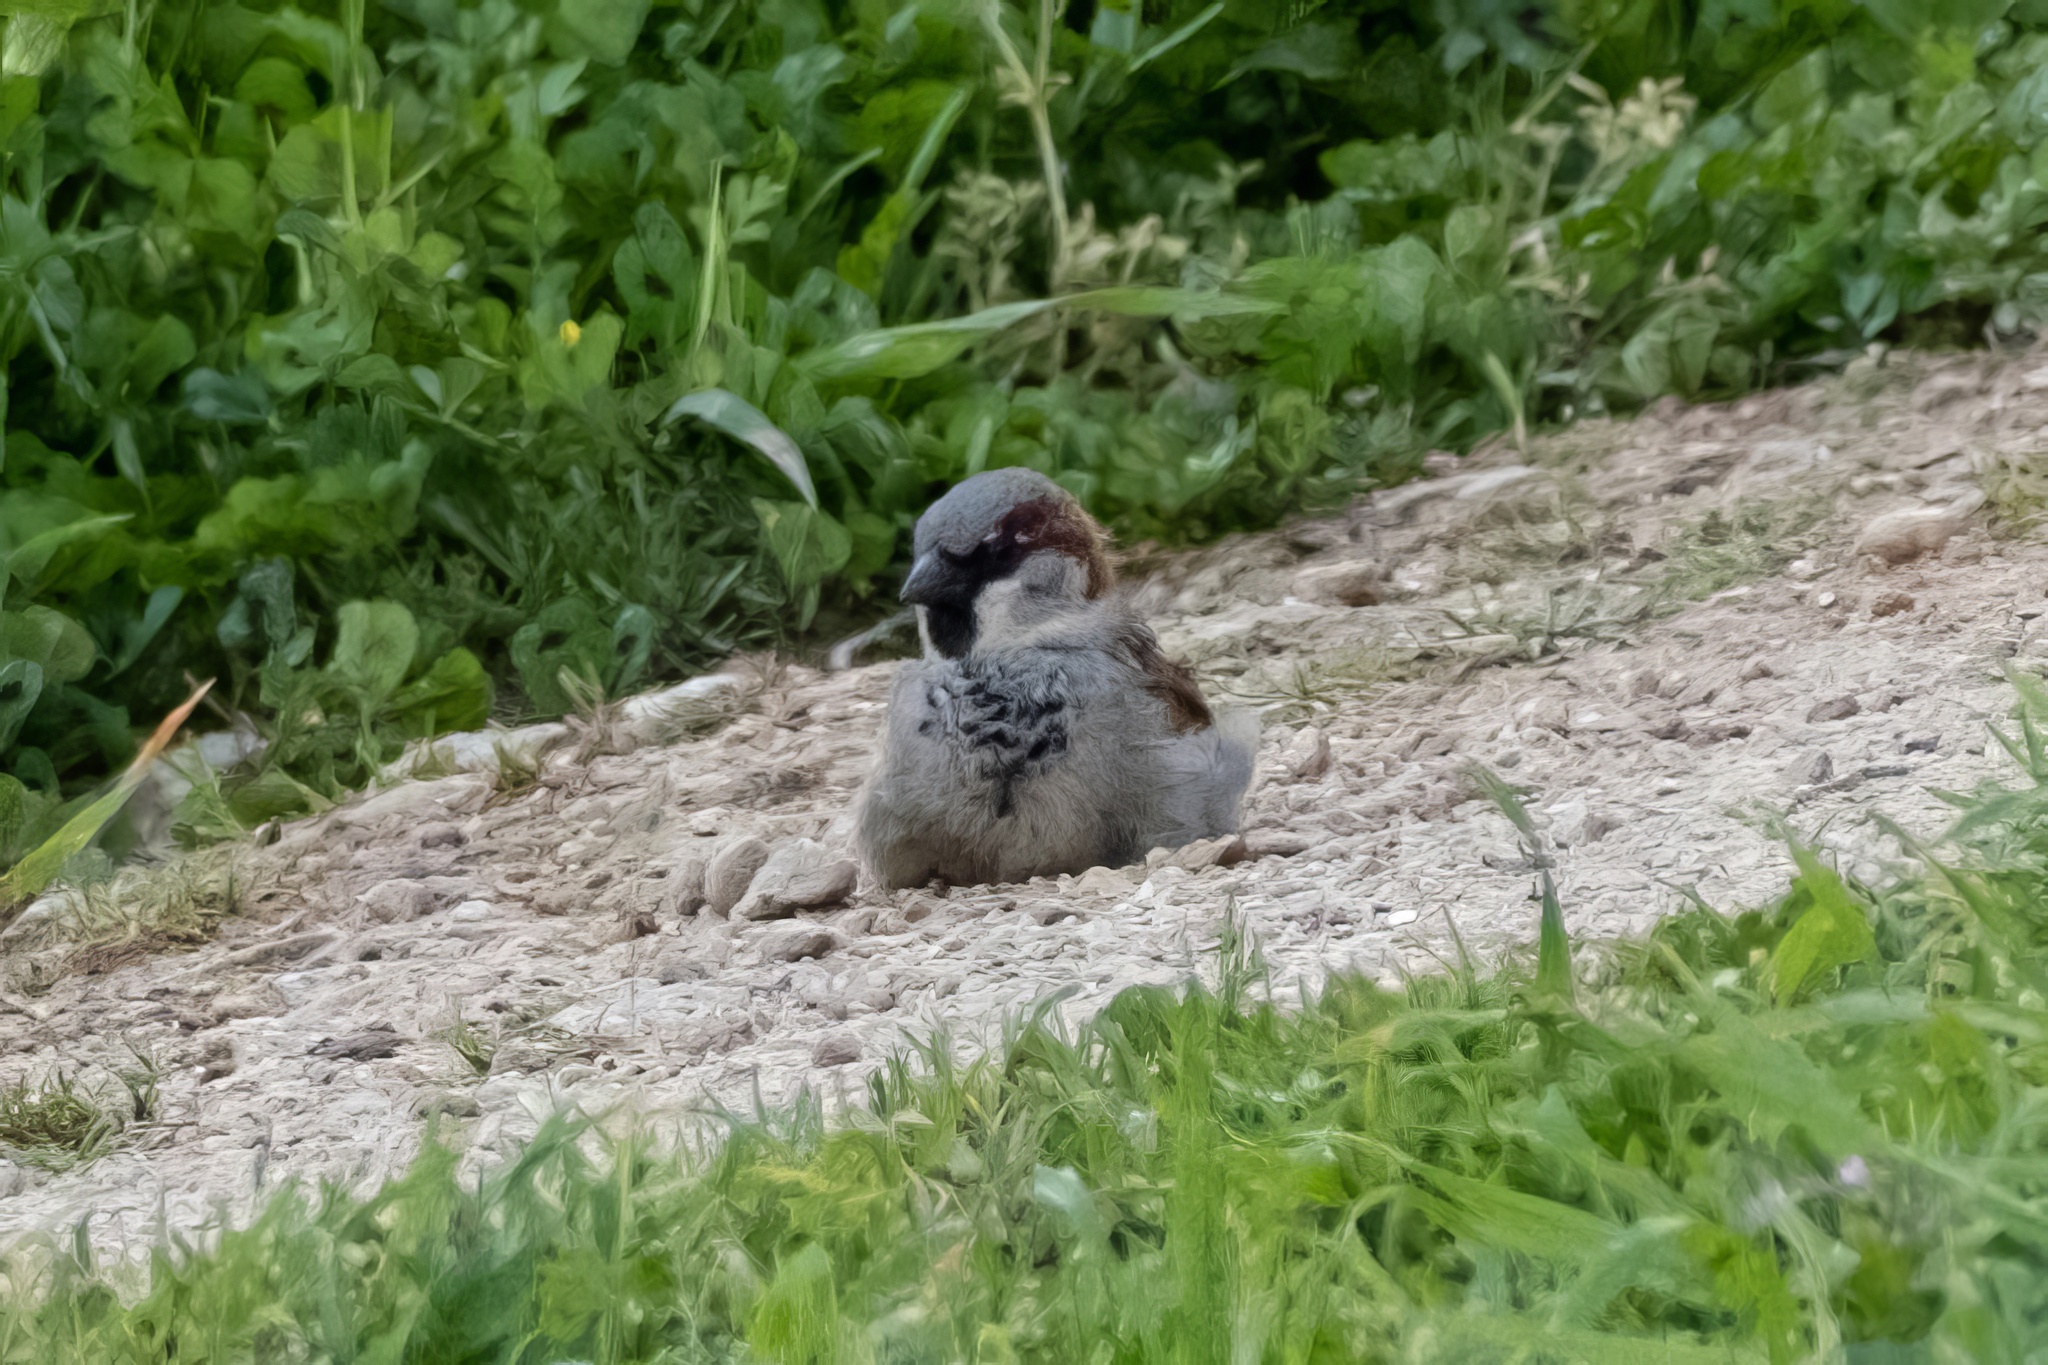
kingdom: Animalia
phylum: Chordata
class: Aves
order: Passeriformes
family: Passeridae
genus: Passer
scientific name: Passer domesticus
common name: House sparrow
